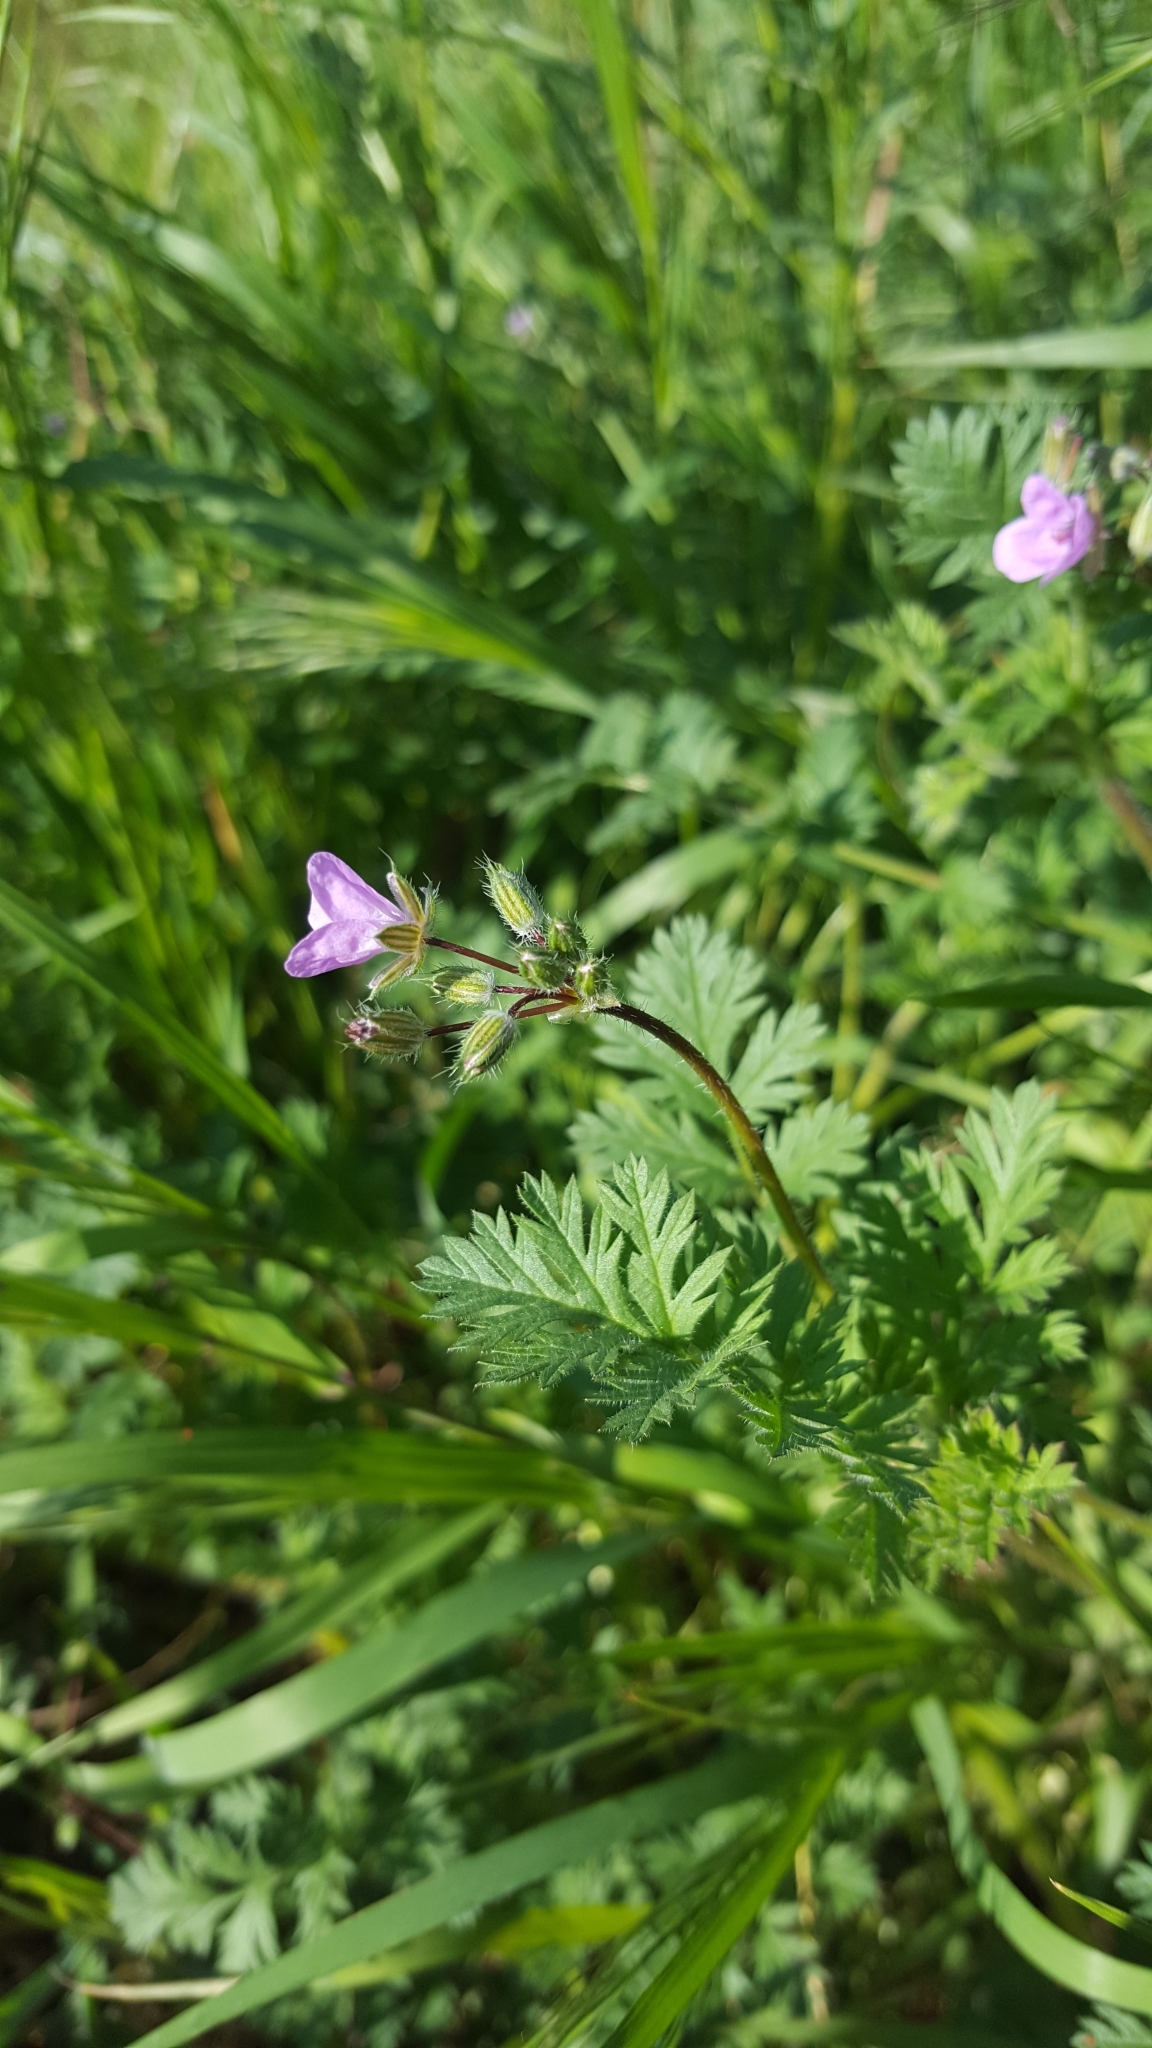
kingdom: Plantae
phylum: Tracheophyta
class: Magnoliopsida
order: Geraniales
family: Geraniaceae
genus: Erodium
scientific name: Erodium cicutarium
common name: Common stork's-bill
